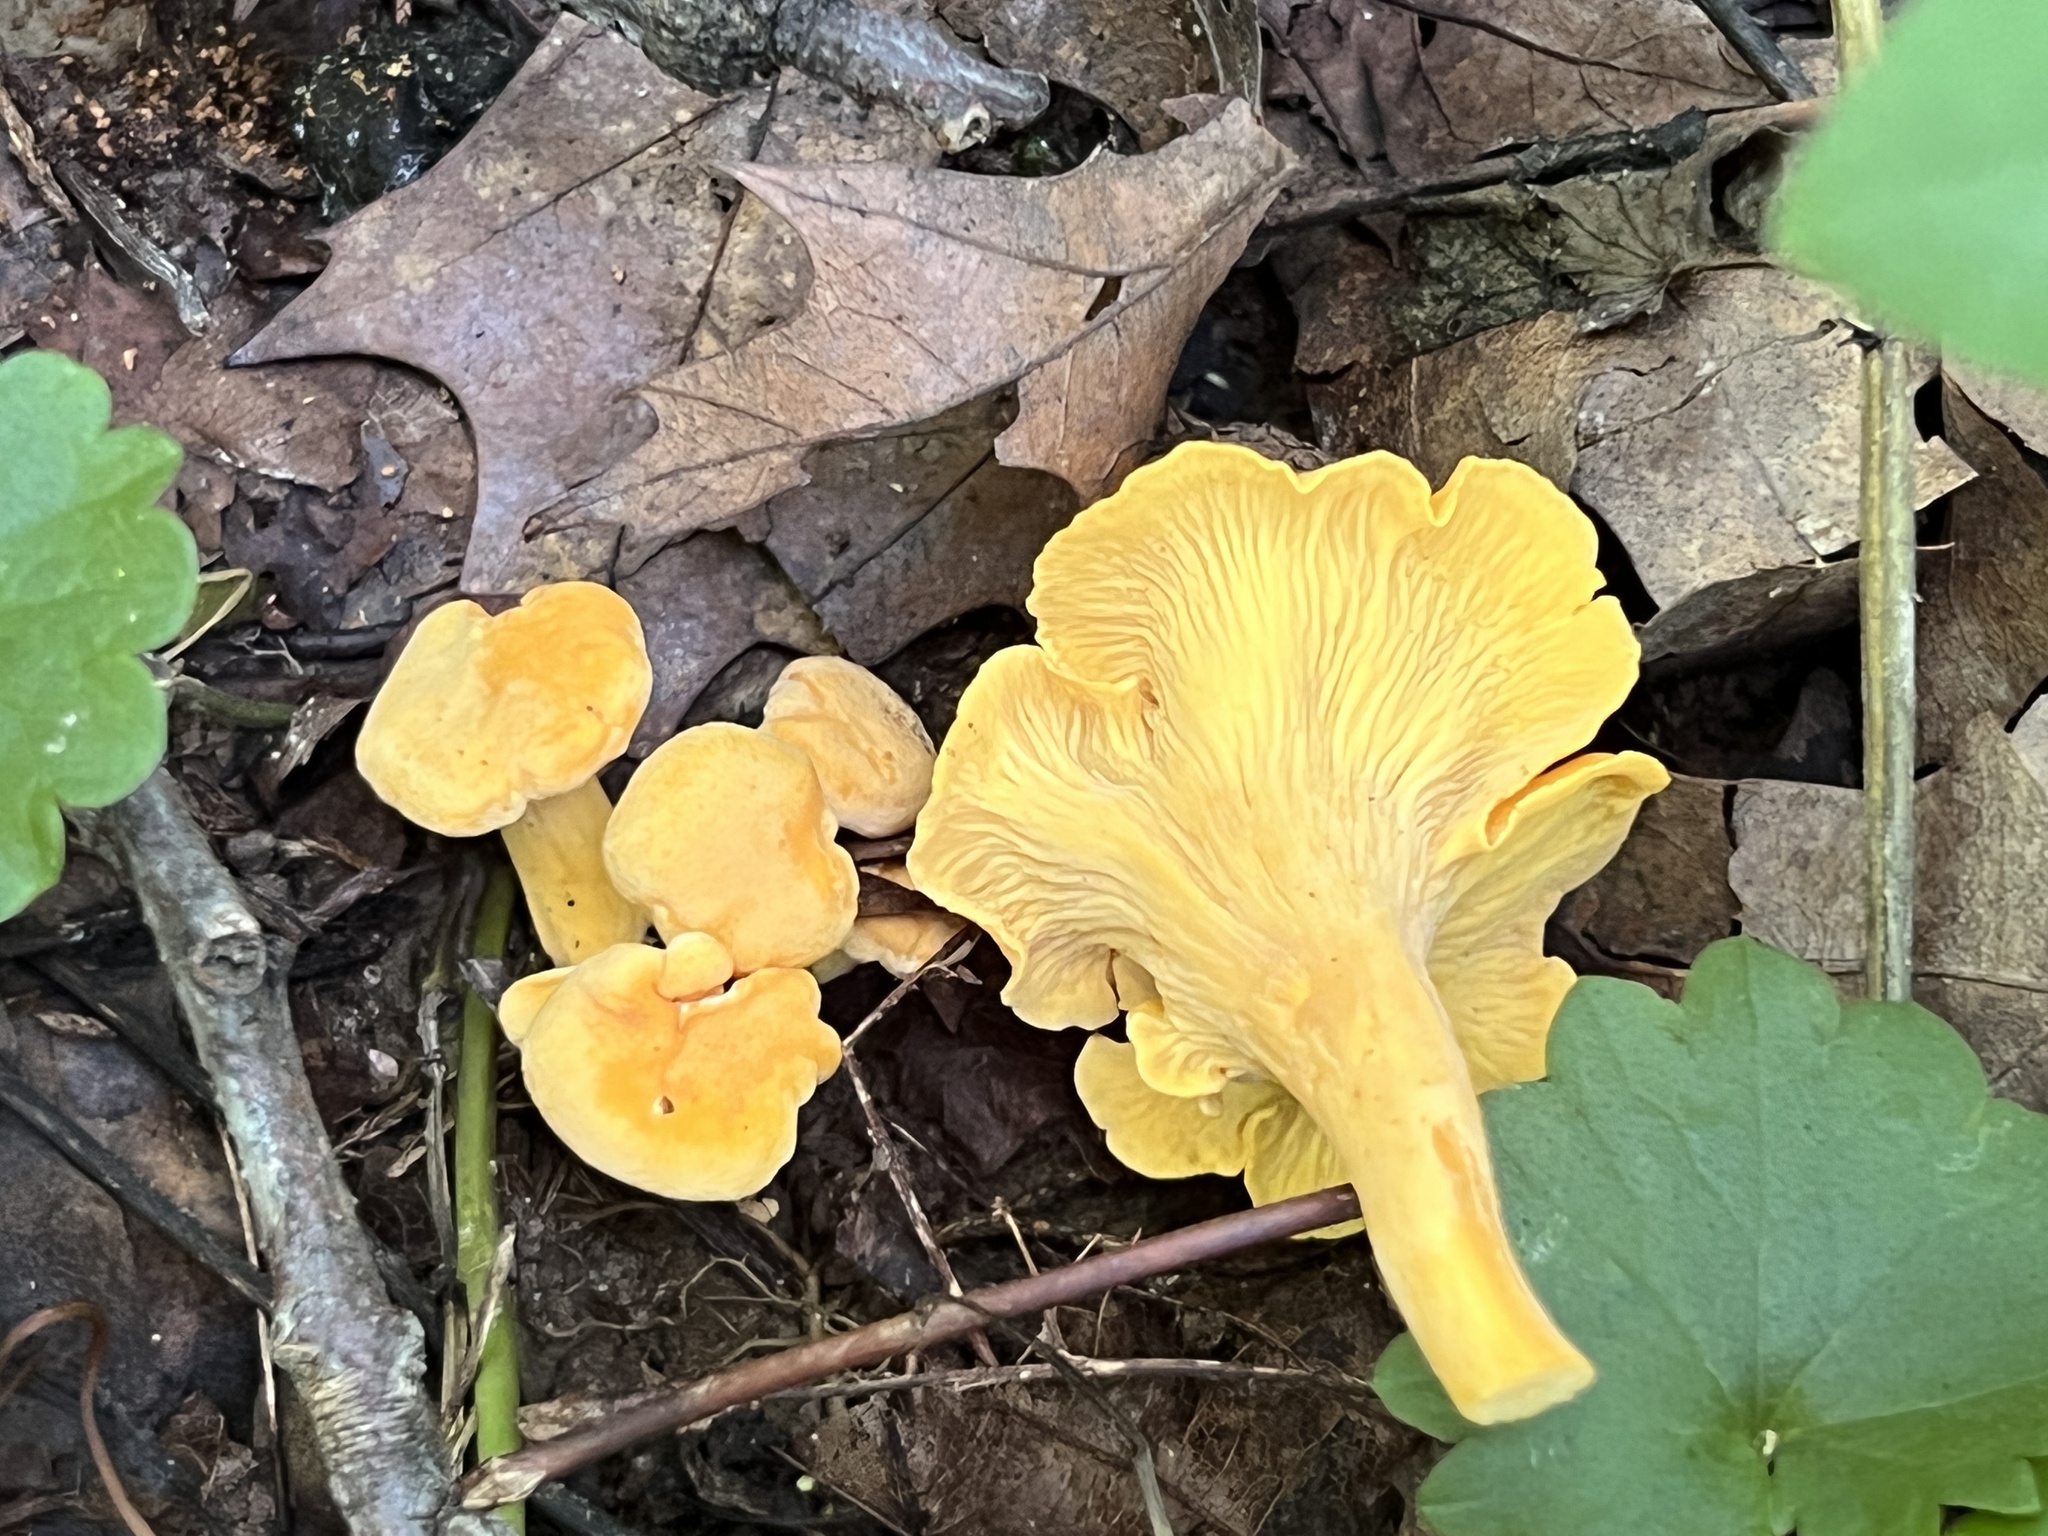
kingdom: Fungi
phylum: Basidiomycota
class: Agaricomycetes
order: Cantharellales
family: Hydnaceae
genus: Cantharellus
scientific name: Cantharellus flavolateritius
